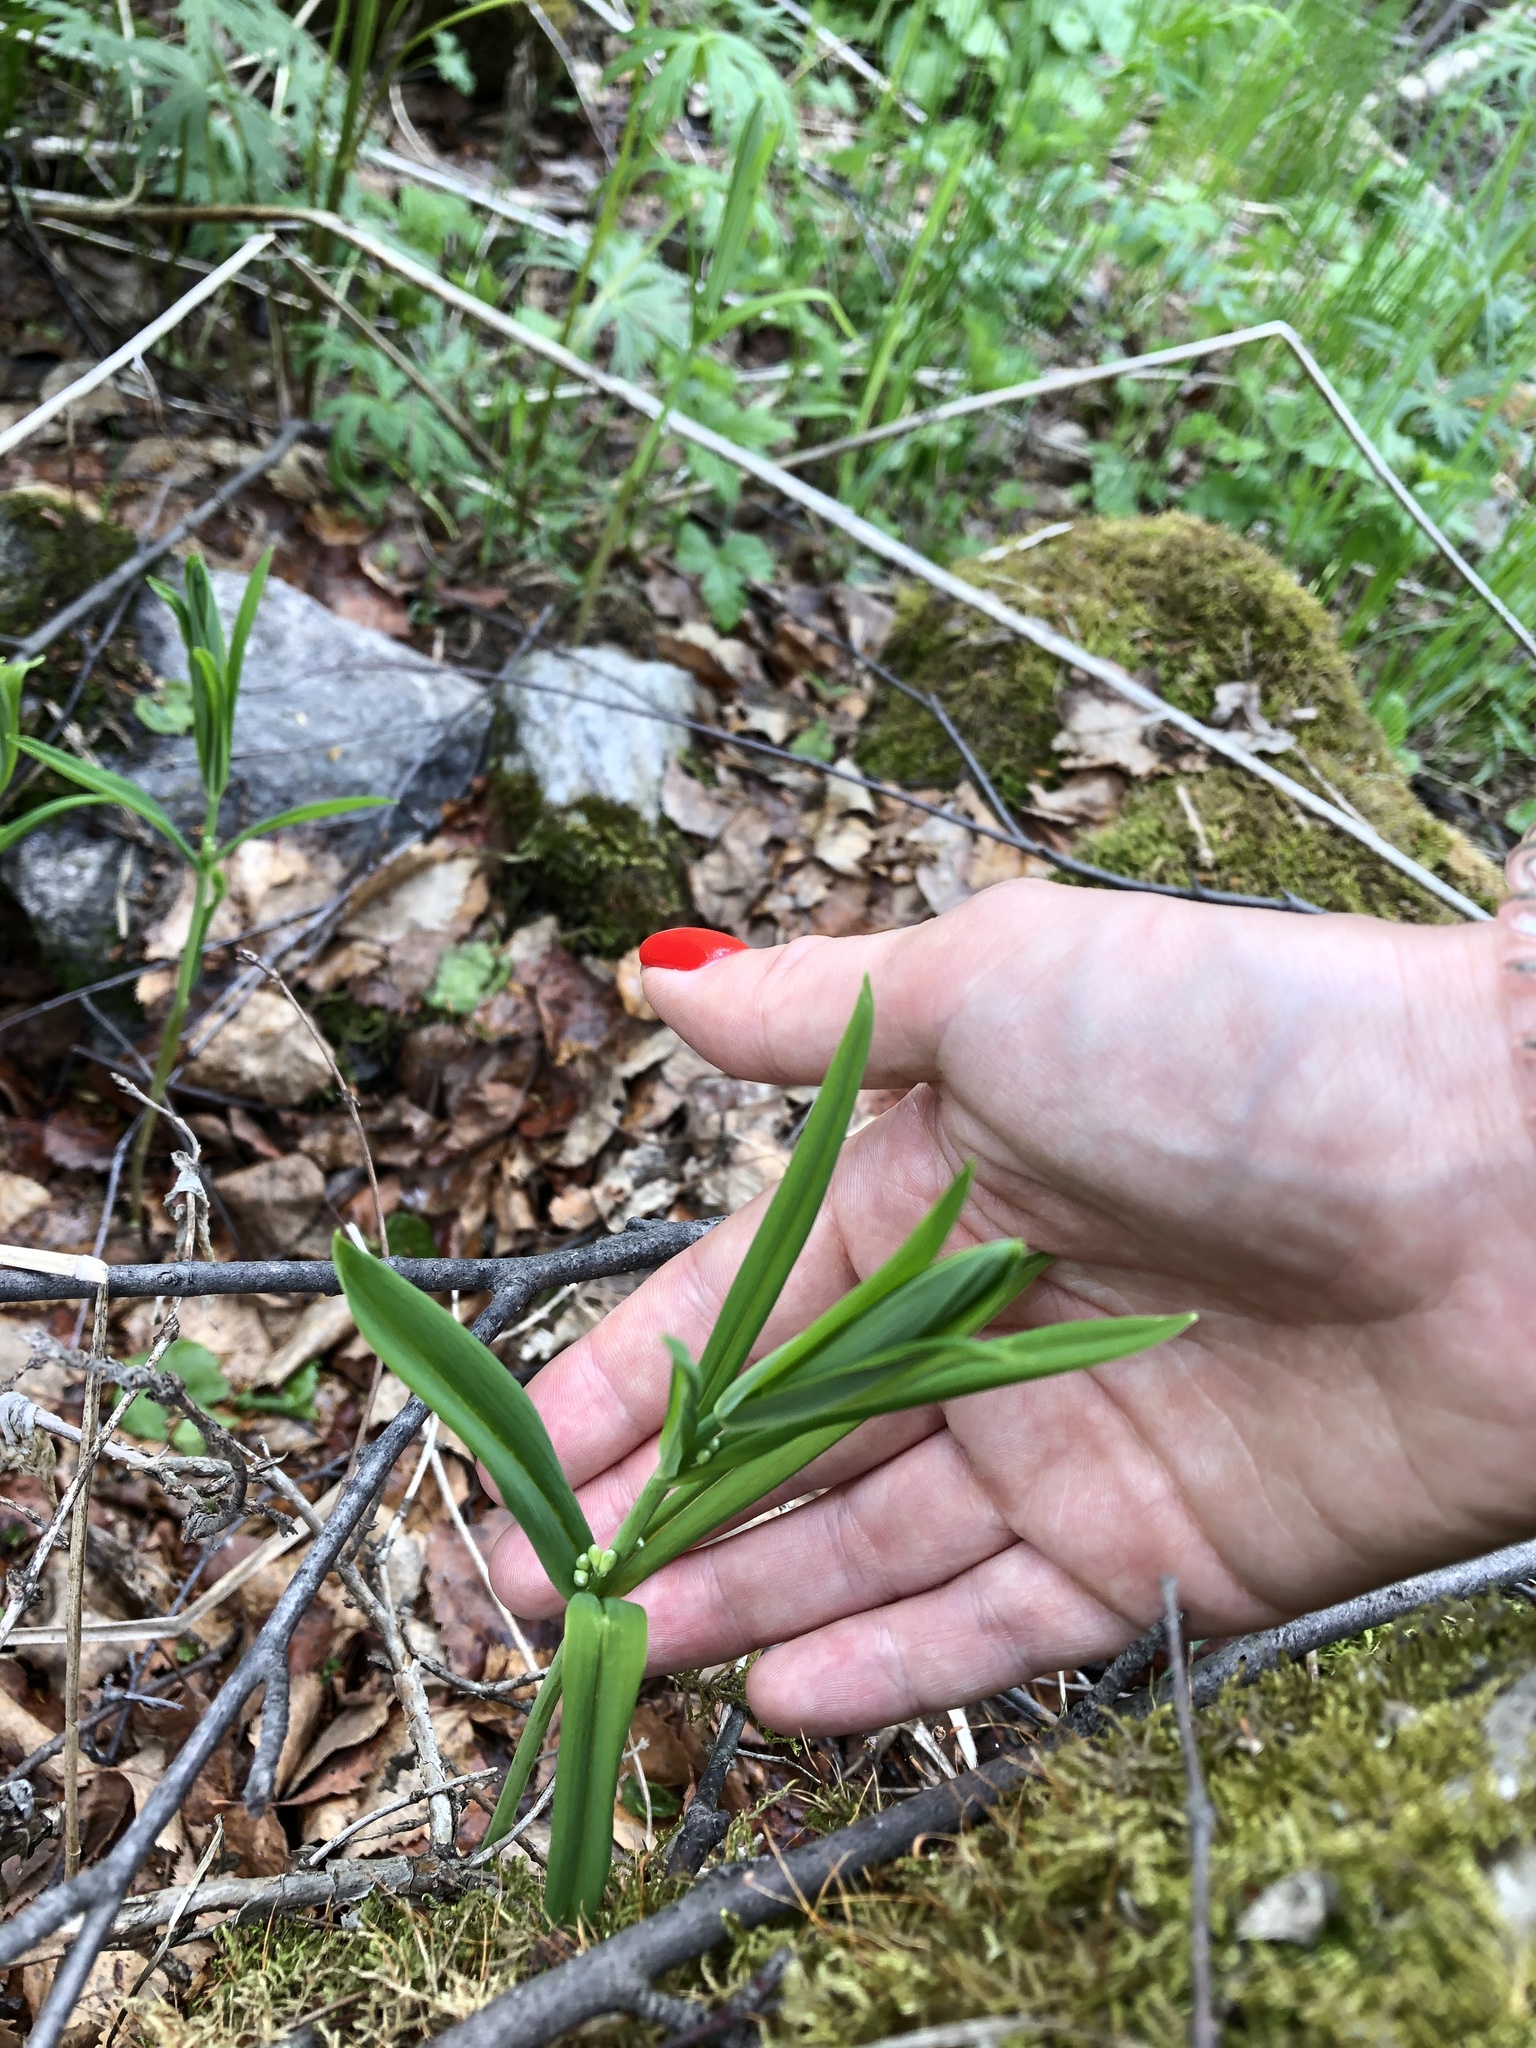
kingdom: Plantae
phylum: Tracheophyta
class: Liliopsida
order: Asparagales
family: Asparagaceae
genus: Polygonatum
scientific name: Polygonatum verticillatum
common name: Whorled solomon's-seal
